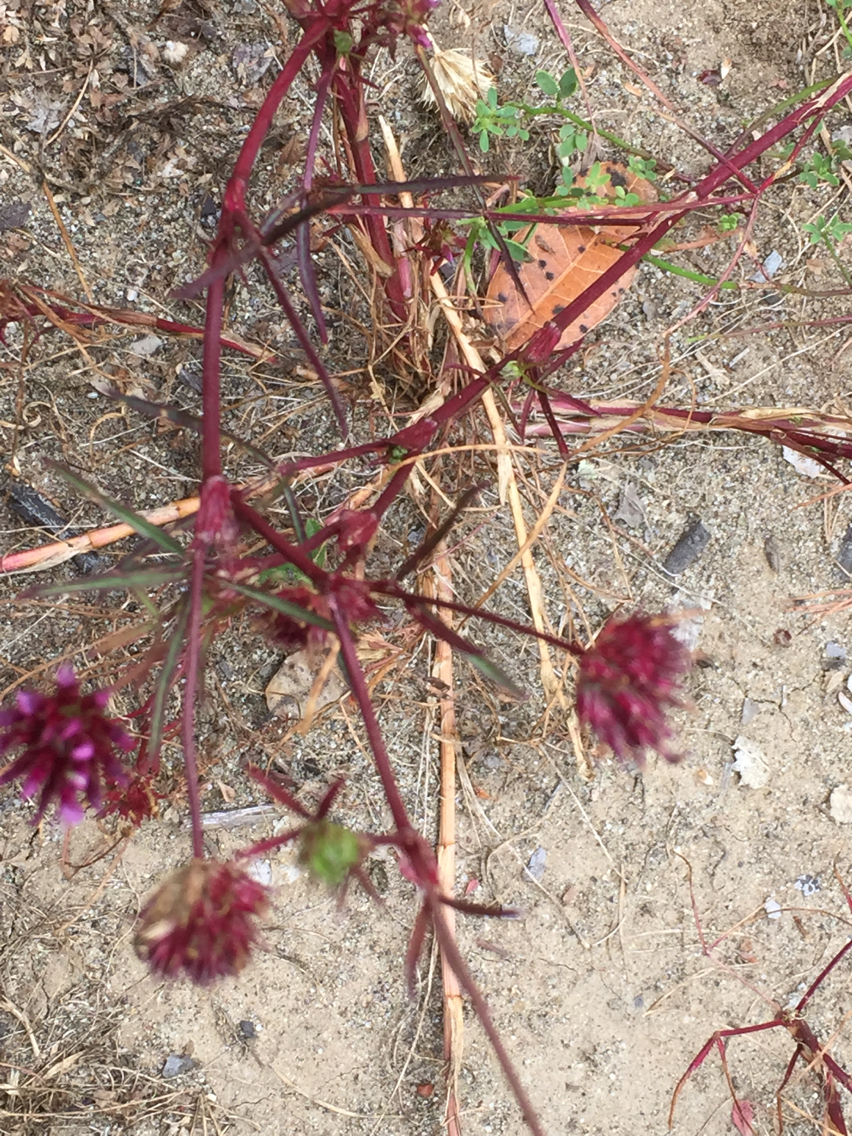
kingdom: Plantae
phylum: Tracheophyta
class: Magnoliopsida
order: Fabales
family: Fabaceae
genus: Trifolium
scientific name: Trifolium willdenovii
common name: Tomcat clover
